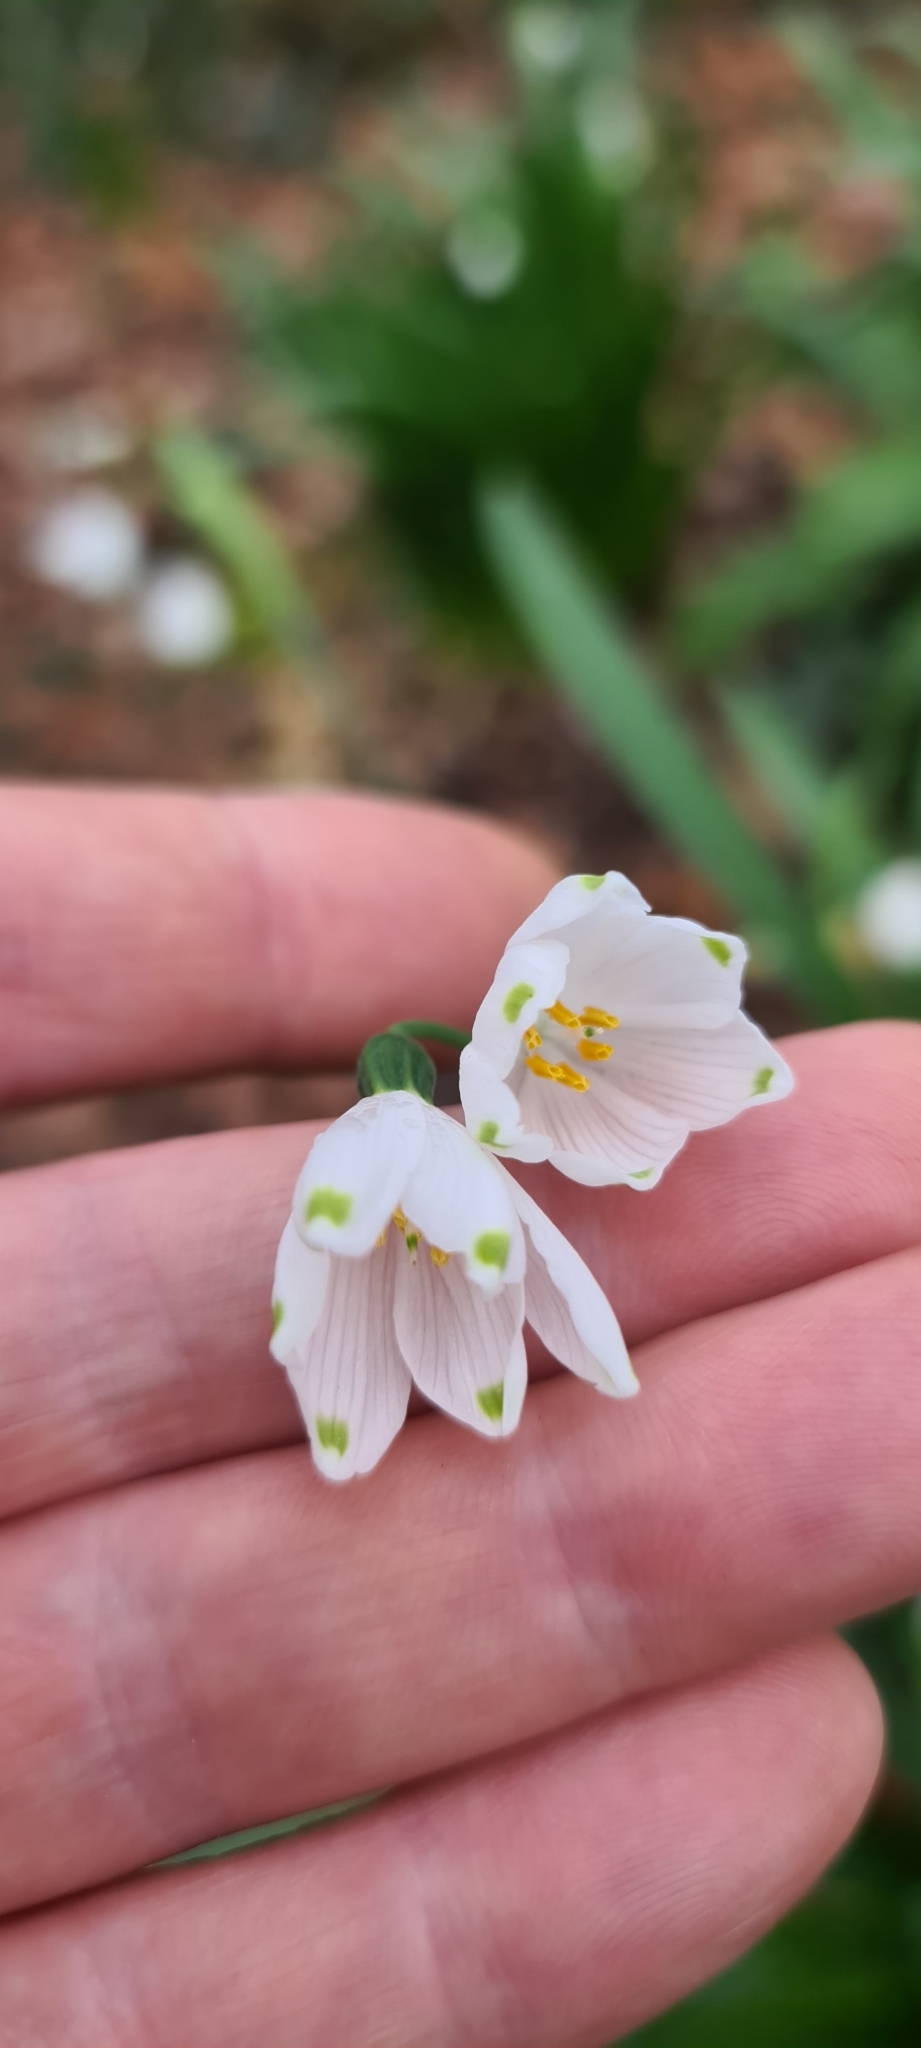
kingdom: Plantae
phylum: Tracheophyta
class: Liliopsida
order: Asparagales
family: Amaryllidaceae
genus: Leucojum
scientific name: Leucojum aestivum
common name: Summer snowflake
